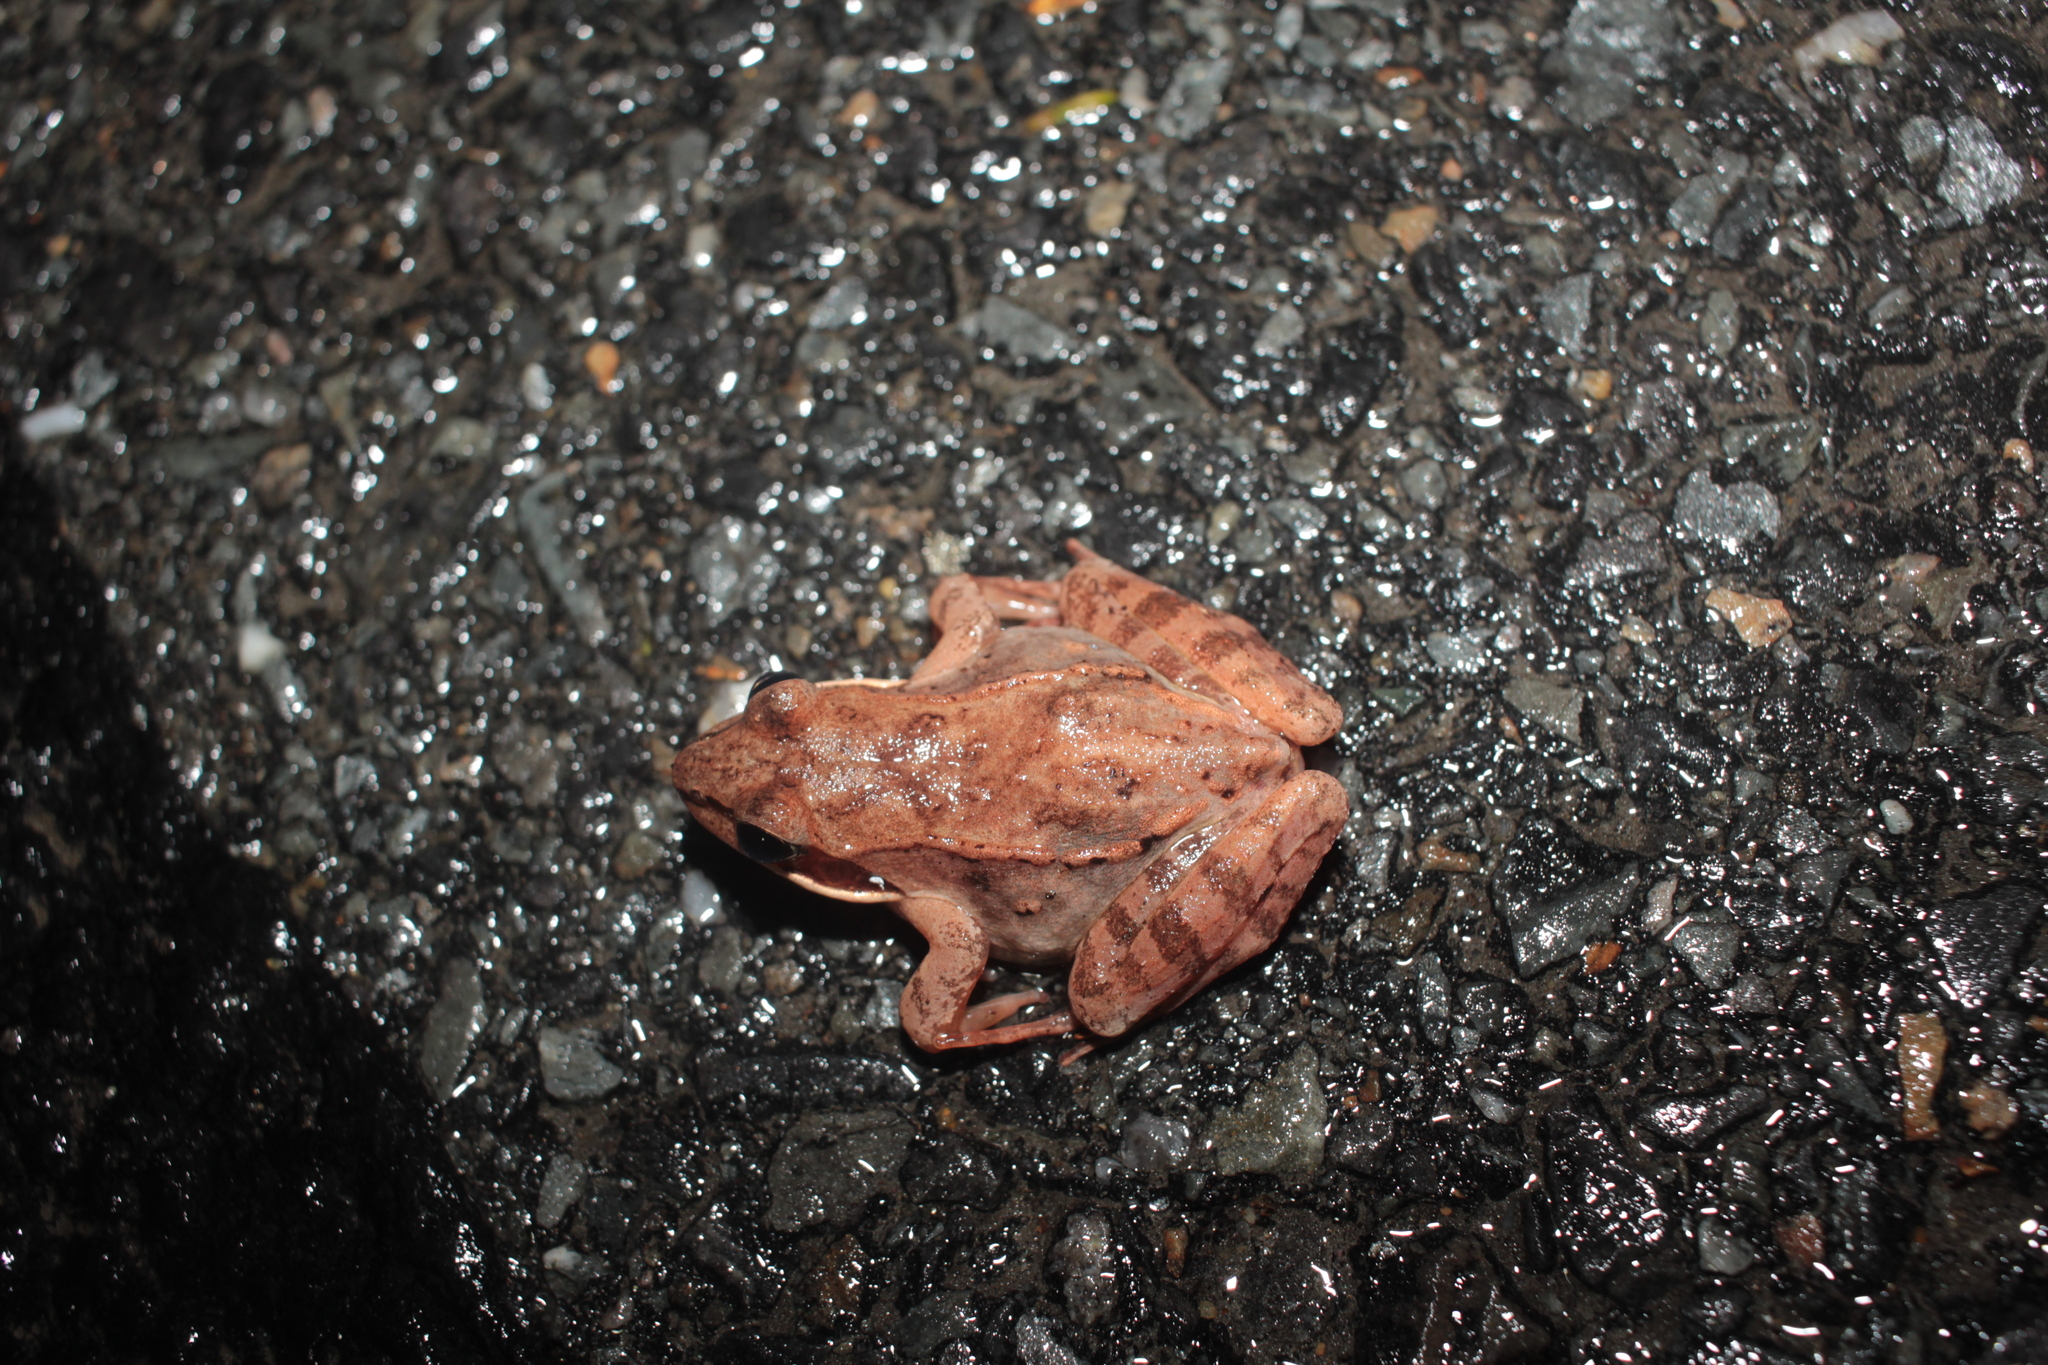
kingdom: Animalia
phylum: Chordata
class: Amphibia
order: Anura
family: Ranidae
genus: Lithobates
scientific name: Lithobates sylvaticus
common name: Wood frog
